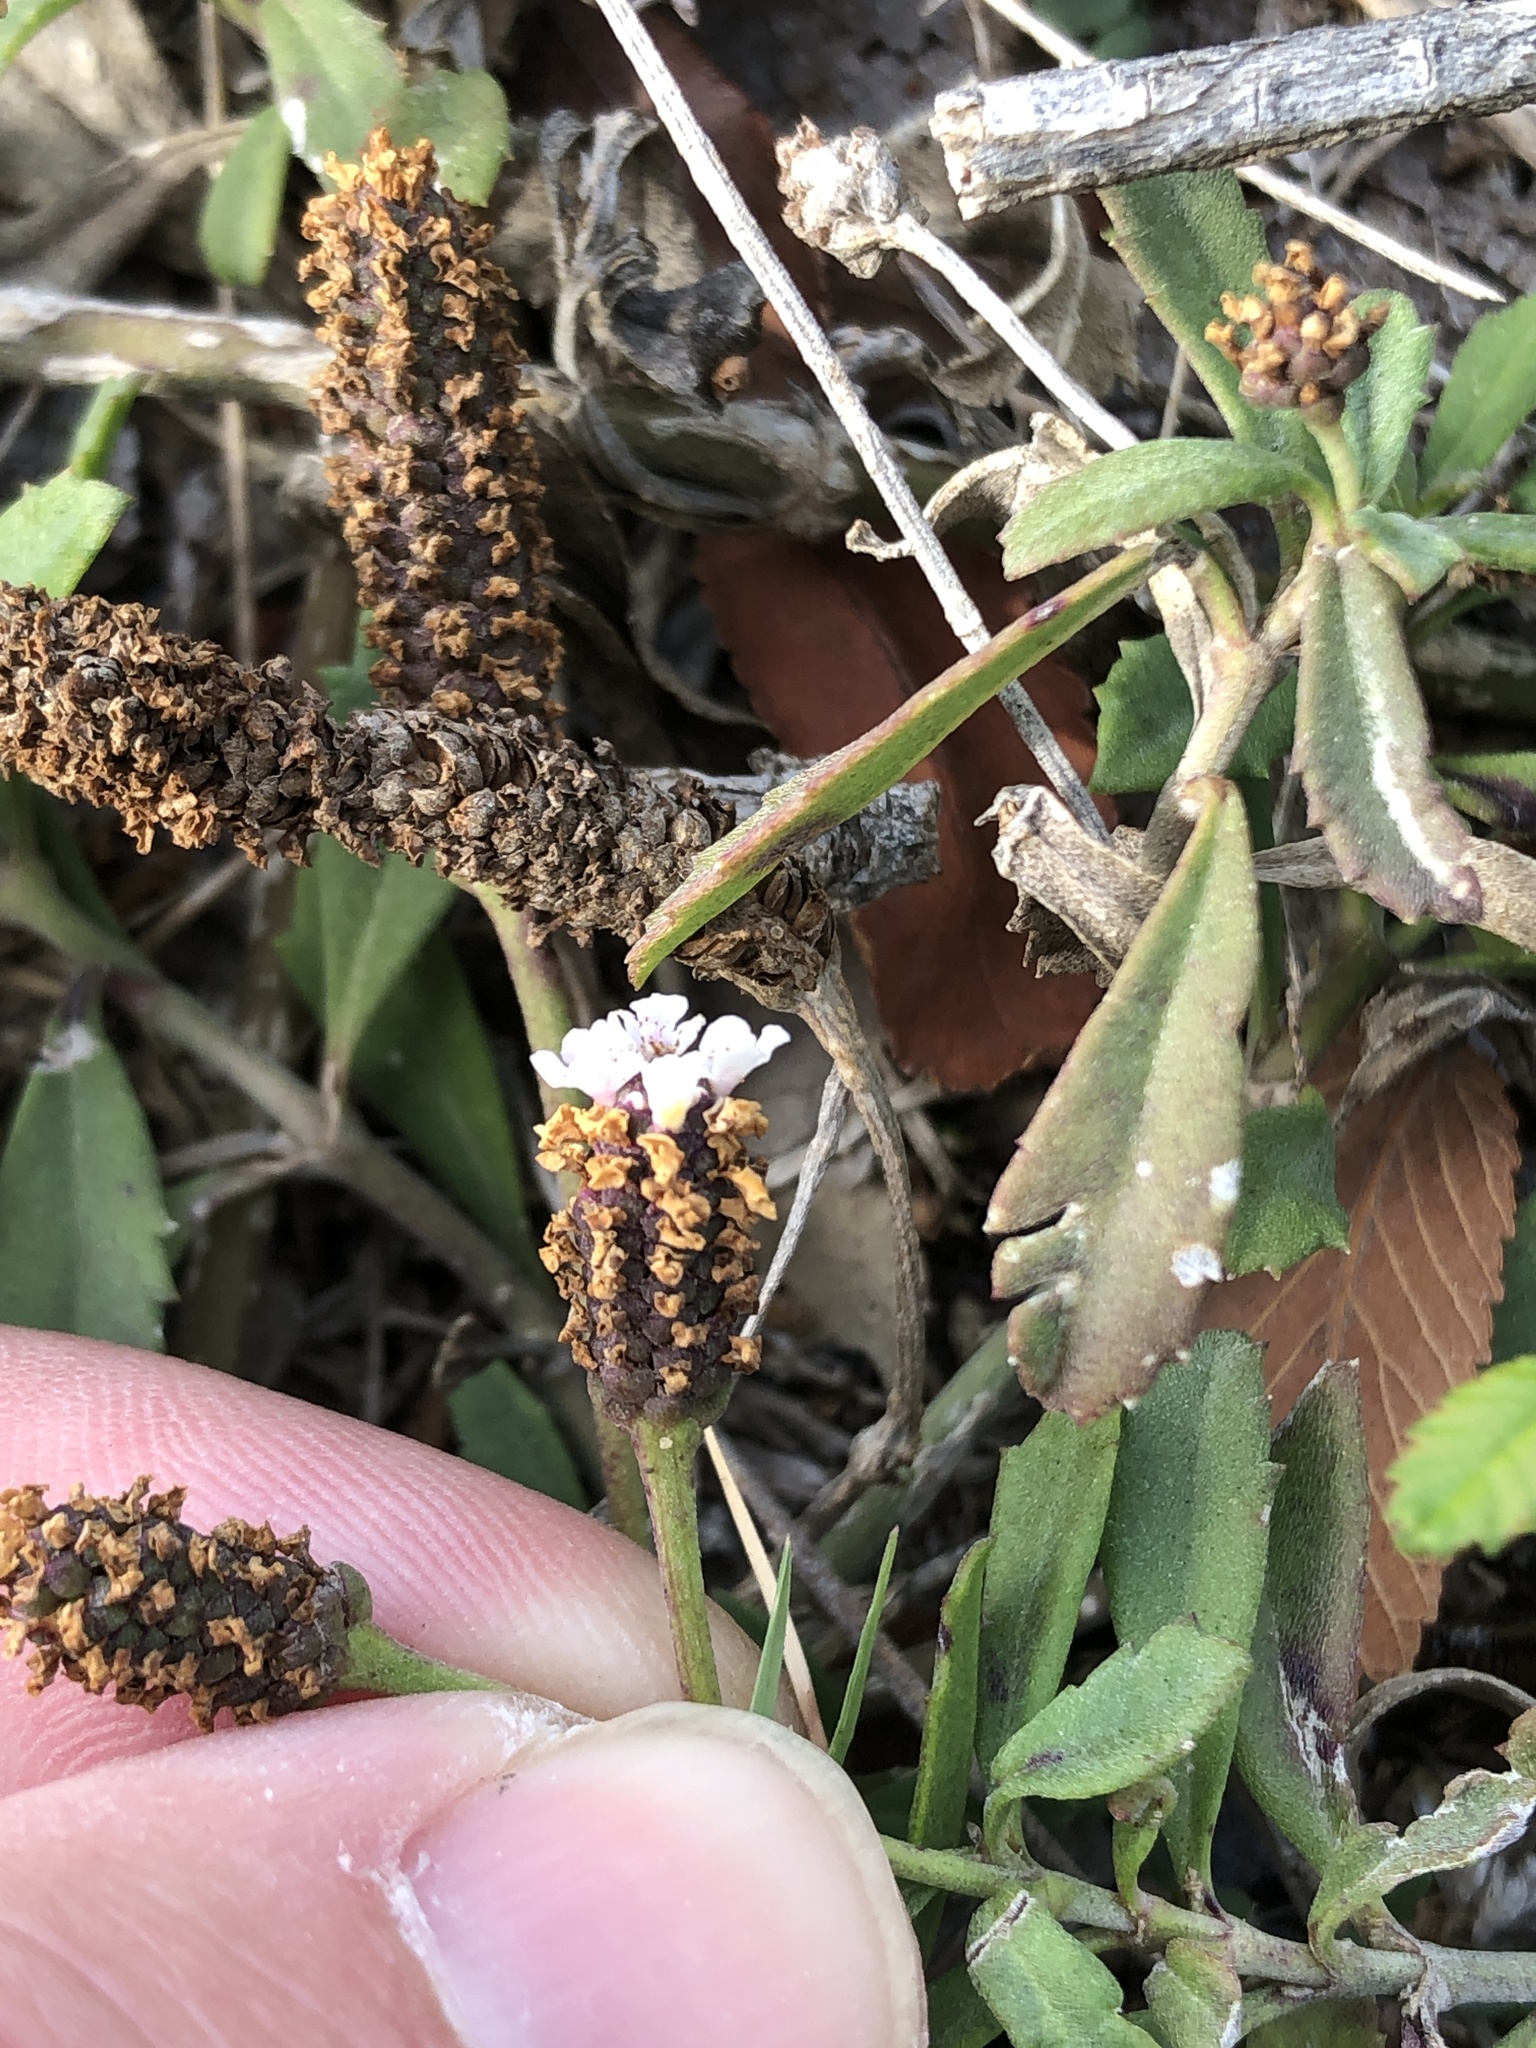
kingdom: Plantae
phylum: Tracheophyta
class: Magnoliopsida
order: Lamiales
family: Verbenaceae
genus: Phyla
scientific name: Phyla nodiflora
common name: Frogfruit
